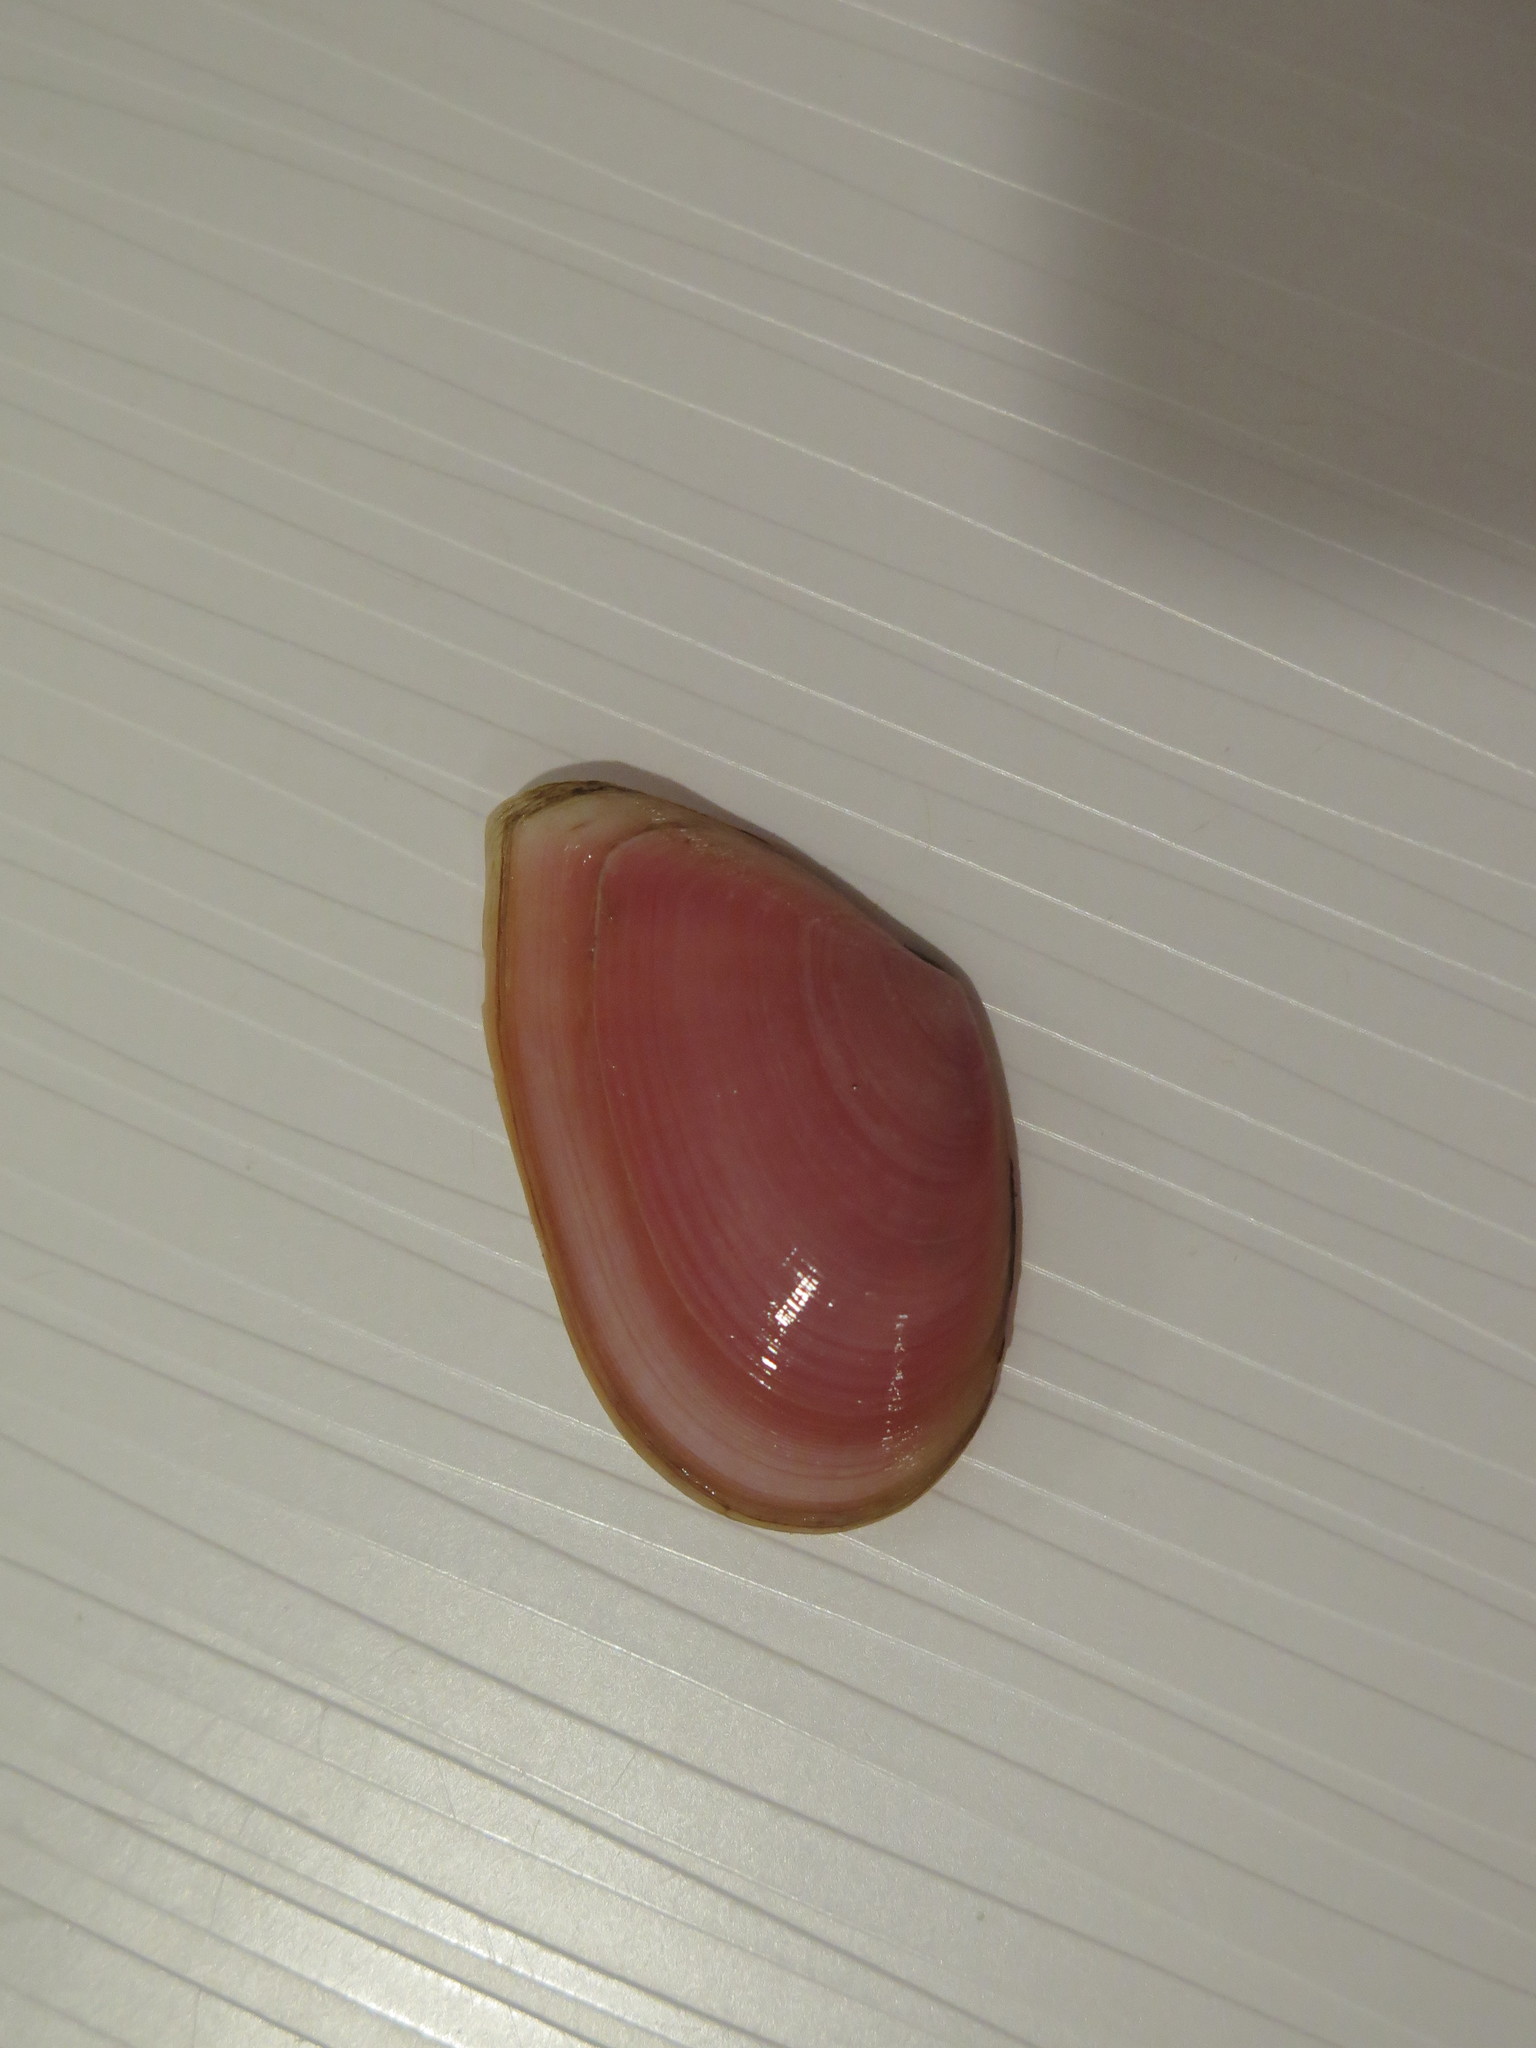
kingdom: Animalia
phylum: Mollusca
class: Bivalvia
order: Cardiida
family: Tellinidae
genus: Eurytellina
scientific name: Eurytellina lineata
